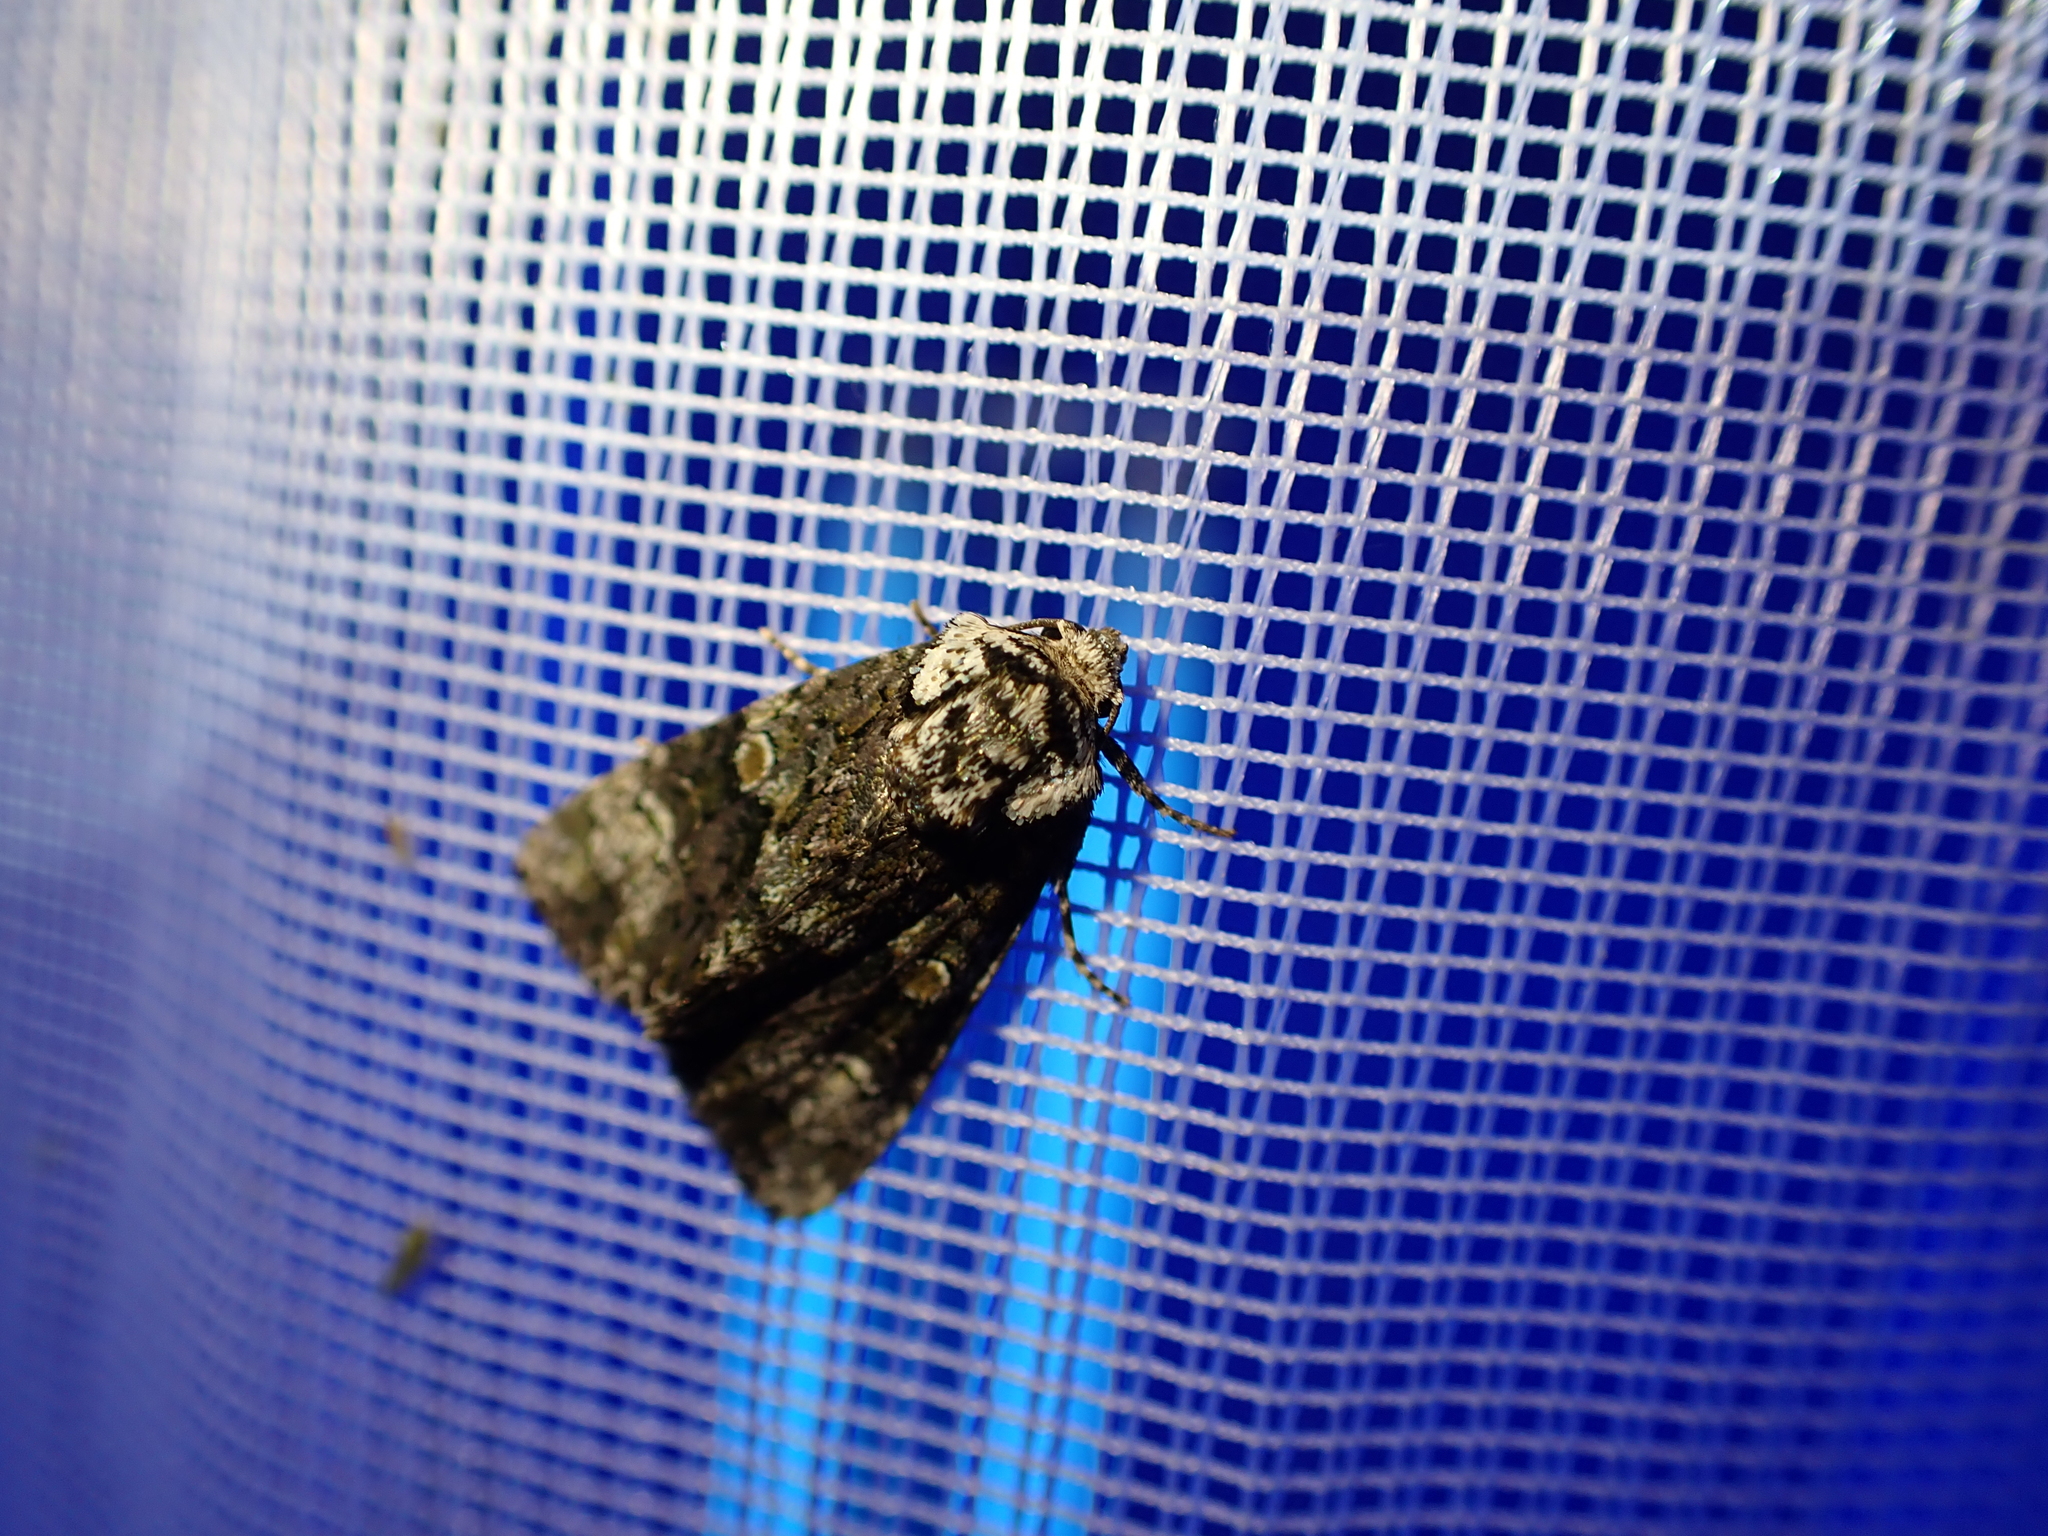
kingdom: Animalia
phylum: Arthropoda
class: Insecta
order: Lepidoptera
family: Noctuidae
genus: Craniophora
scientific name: Craniophora ligustri
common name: Coronet
